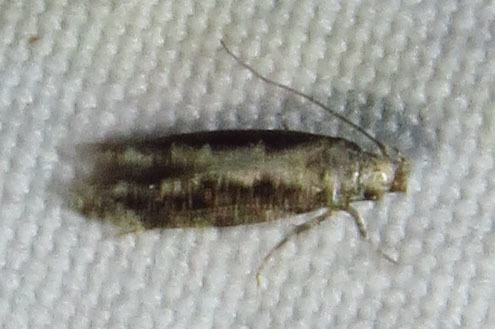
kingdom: Animalia
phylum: Arthropoda
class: Insecta
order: Lepidoptera
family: Gelechiidae
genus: Coleotechnites
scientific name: Coleotechnites florae
